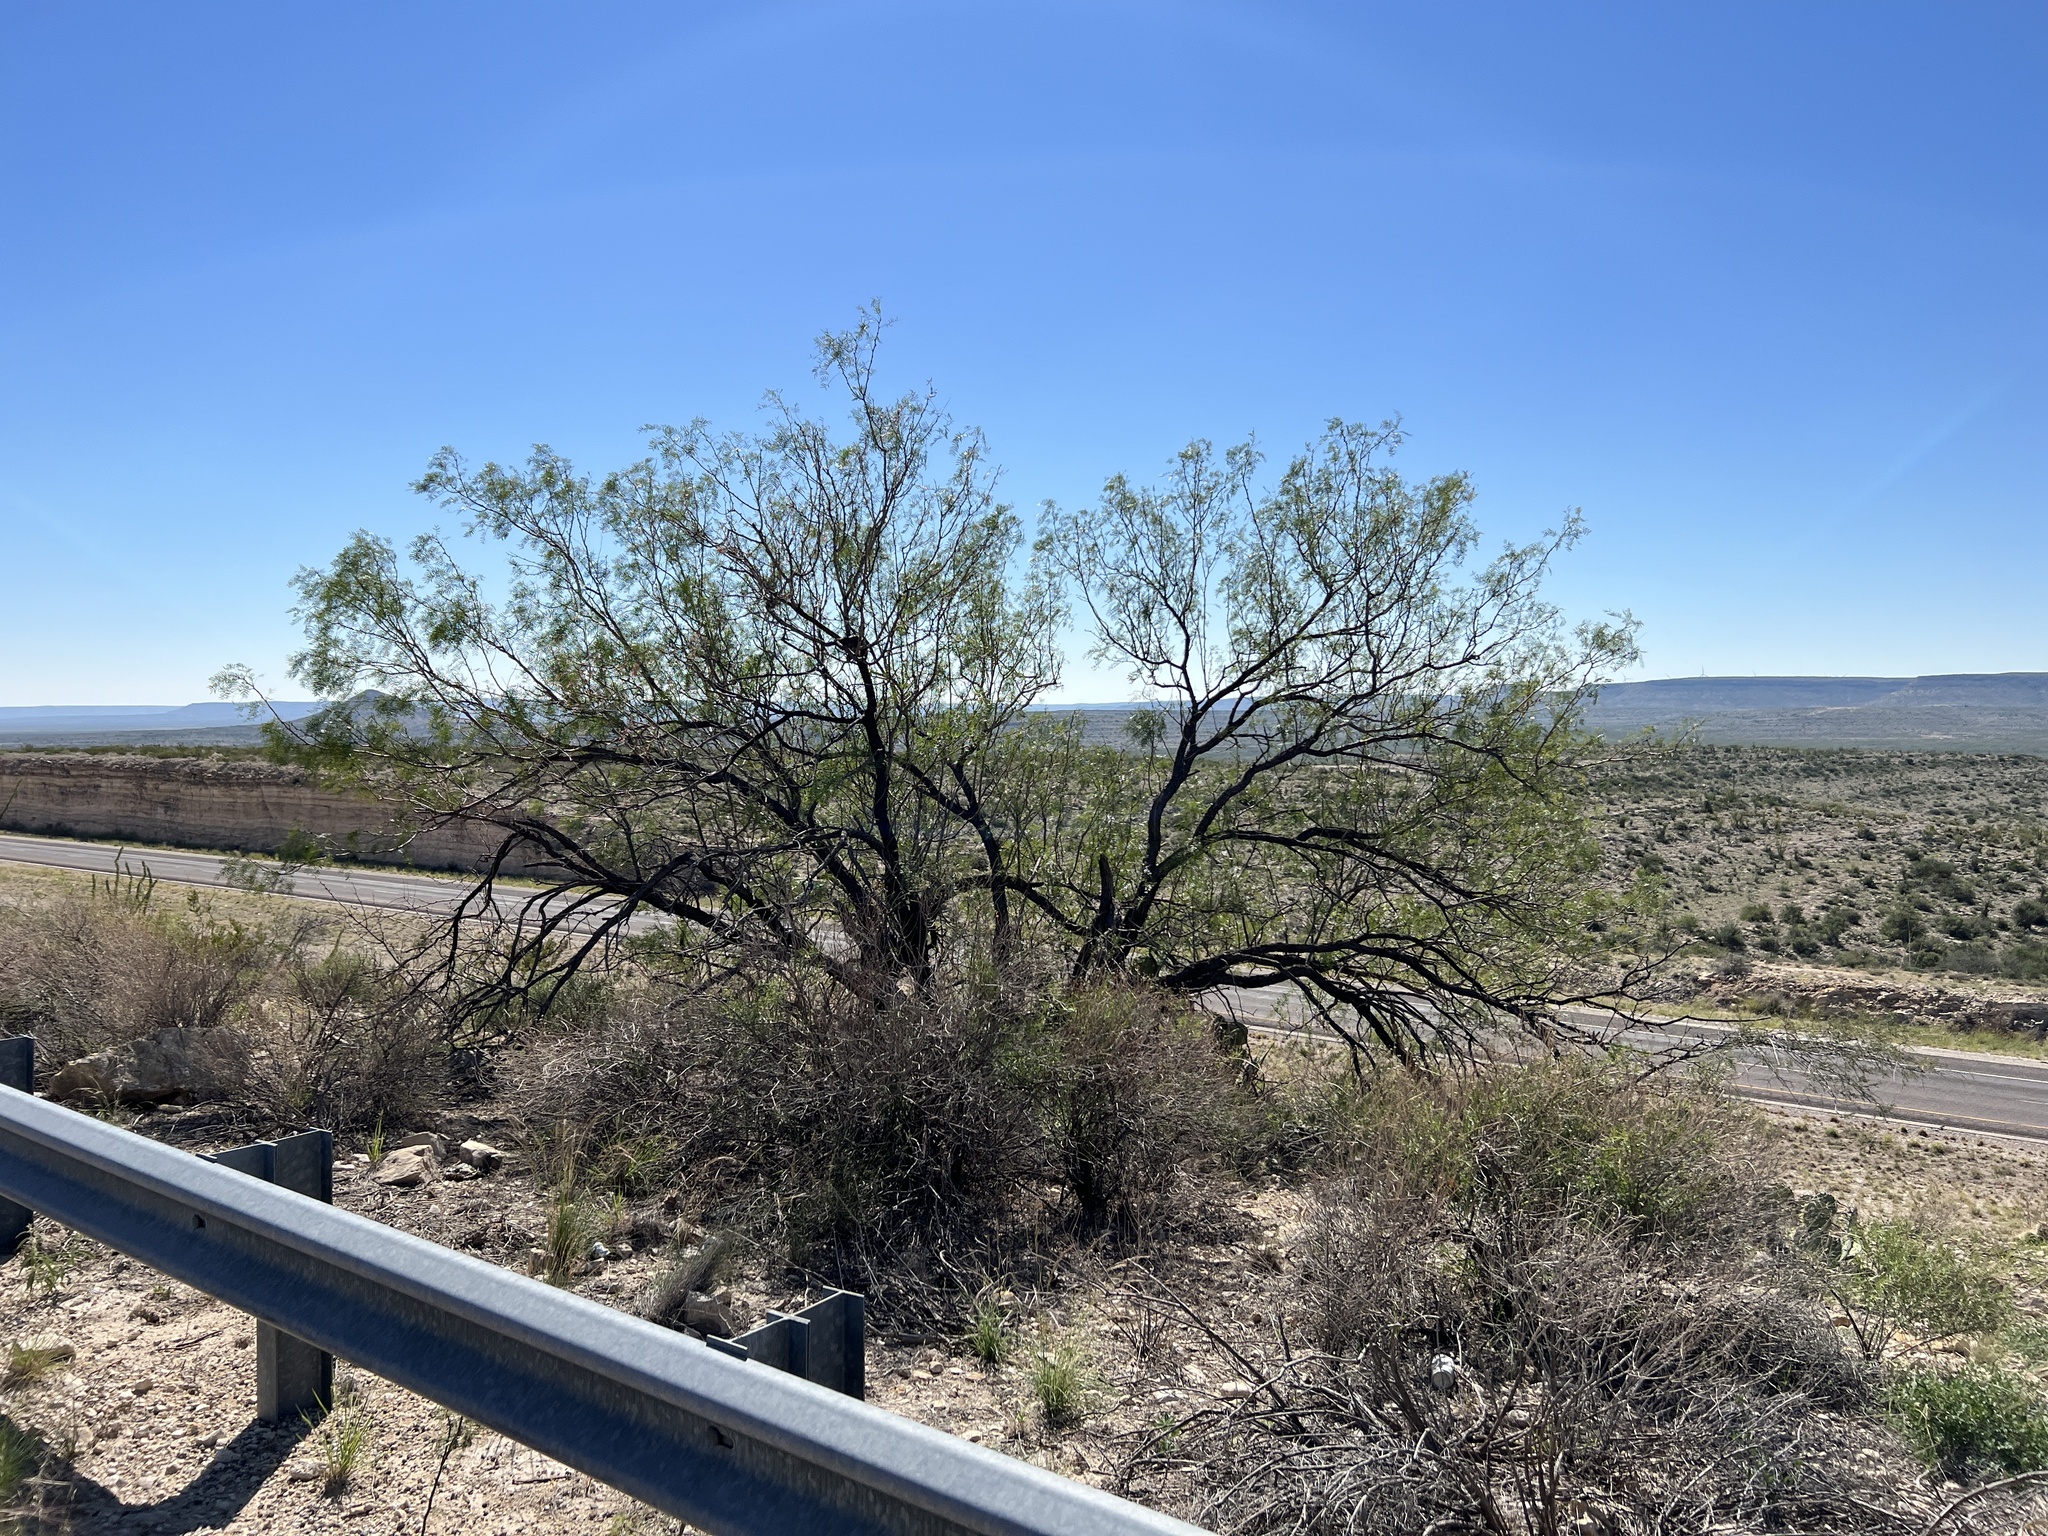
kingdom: Plantae
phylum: Tracheophyta
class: Magnoliopsida
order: Fabales
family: Fabaceae
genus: Prosopis
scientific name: Prosopis glandulosa
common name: Honey mesquite
